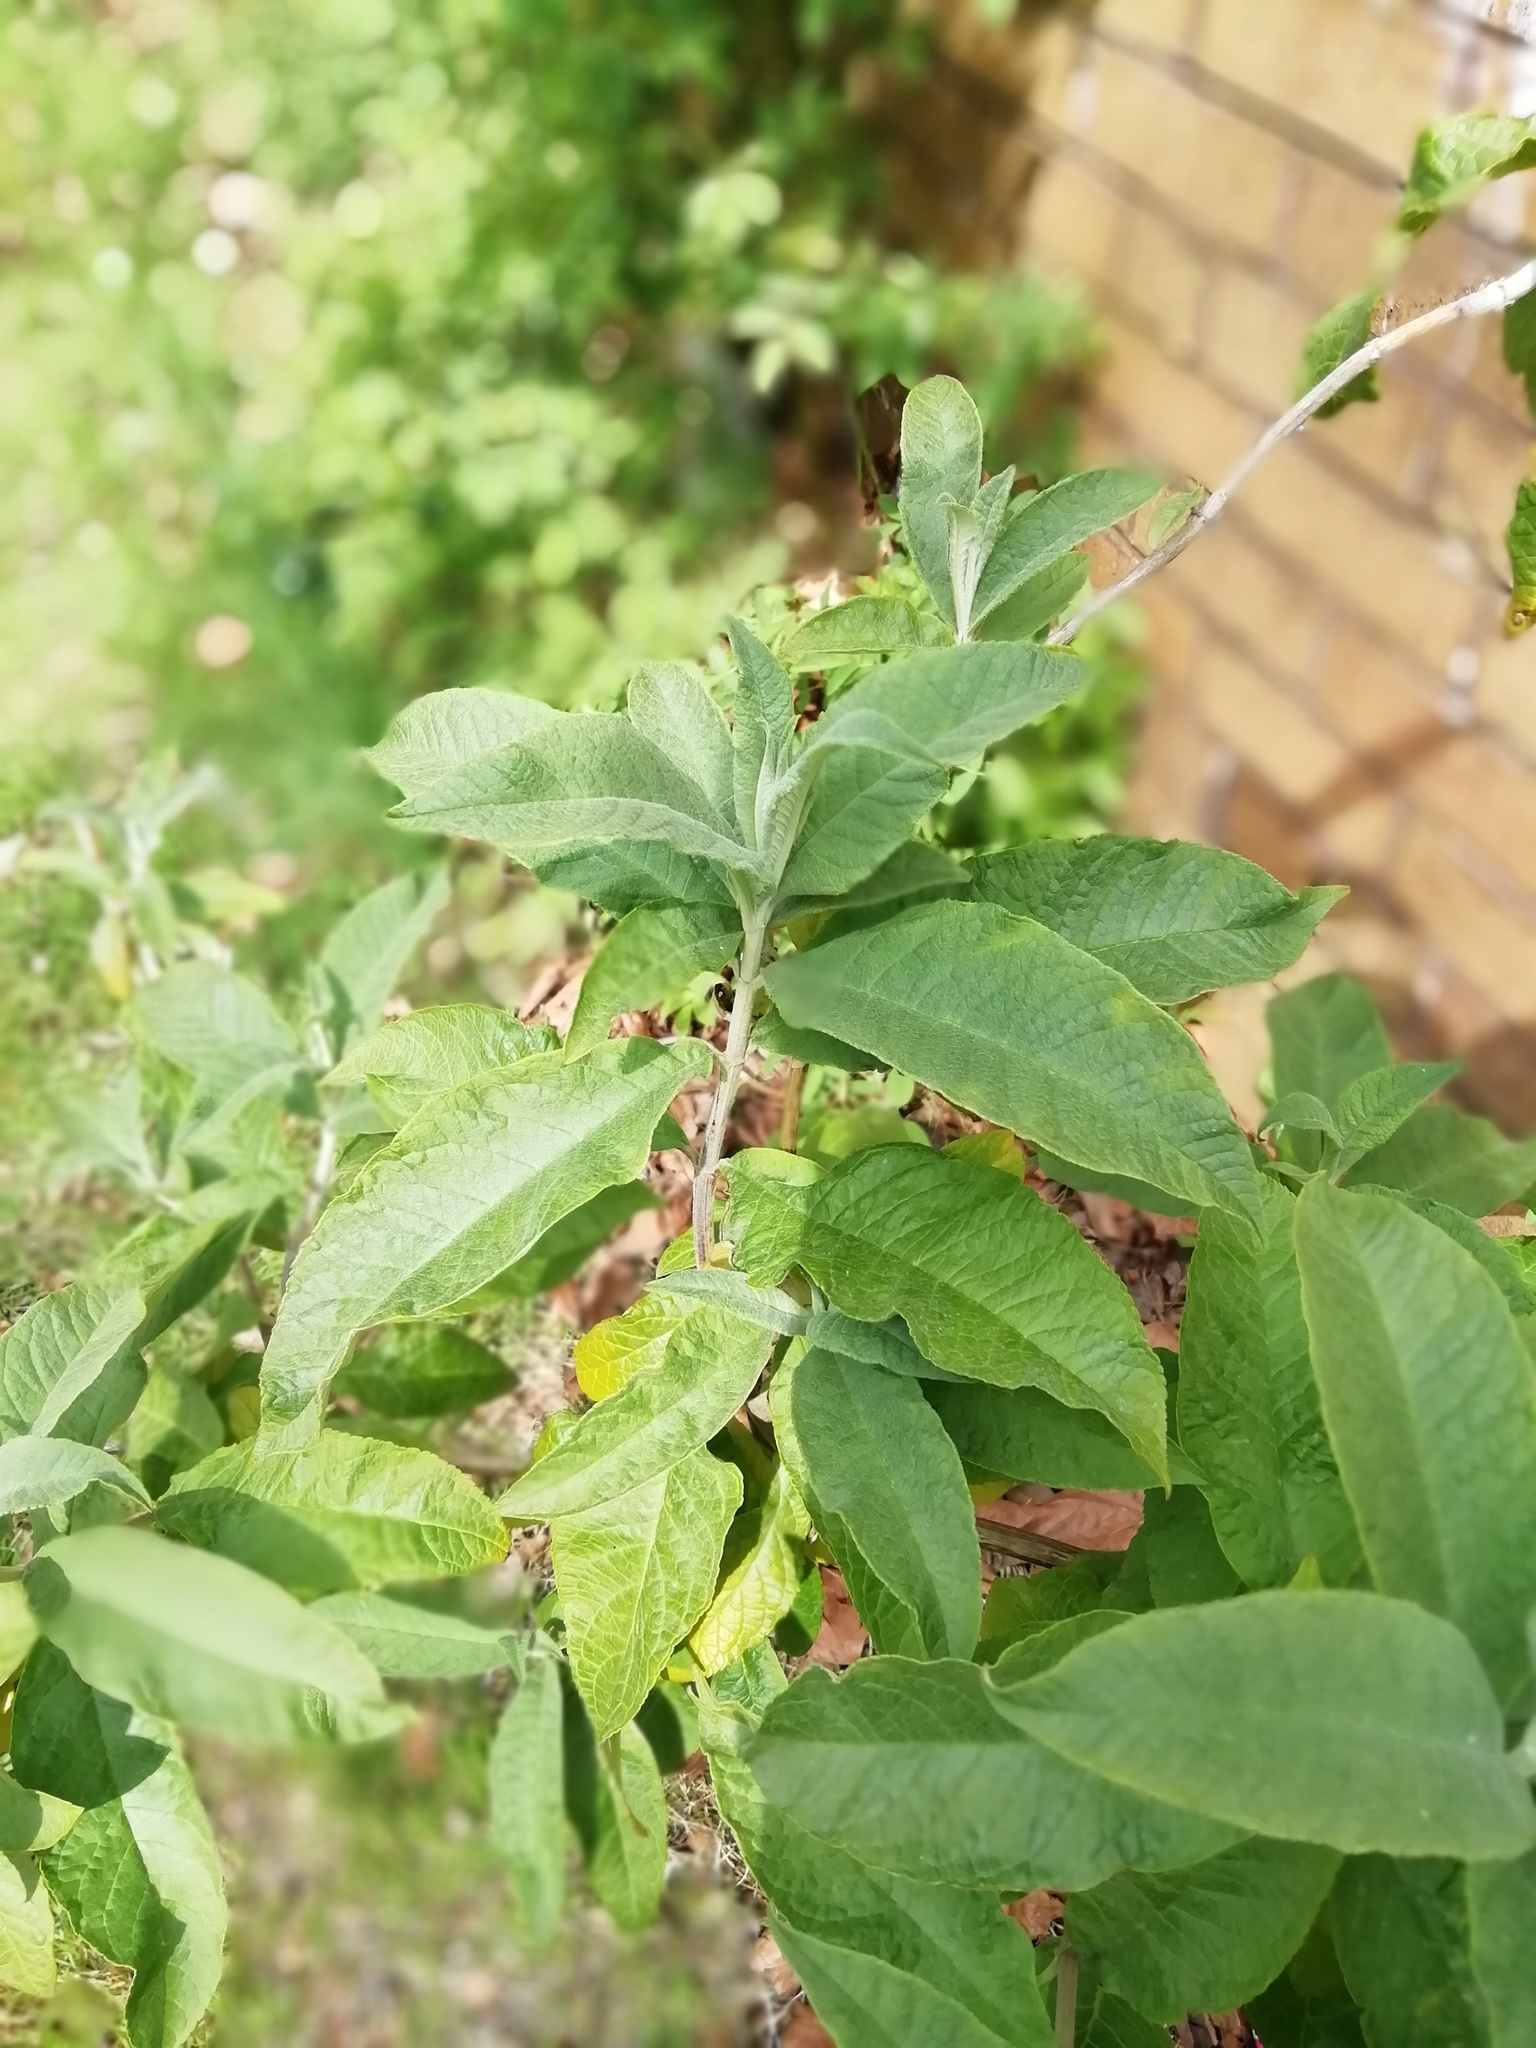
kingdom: Plantae
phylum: Tracheophyta
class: Magnoliopsida
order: Lamiales
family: Scrophulariaceae
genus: Buddleja
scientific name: Buddleja davidii
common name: Butterfly-bush
